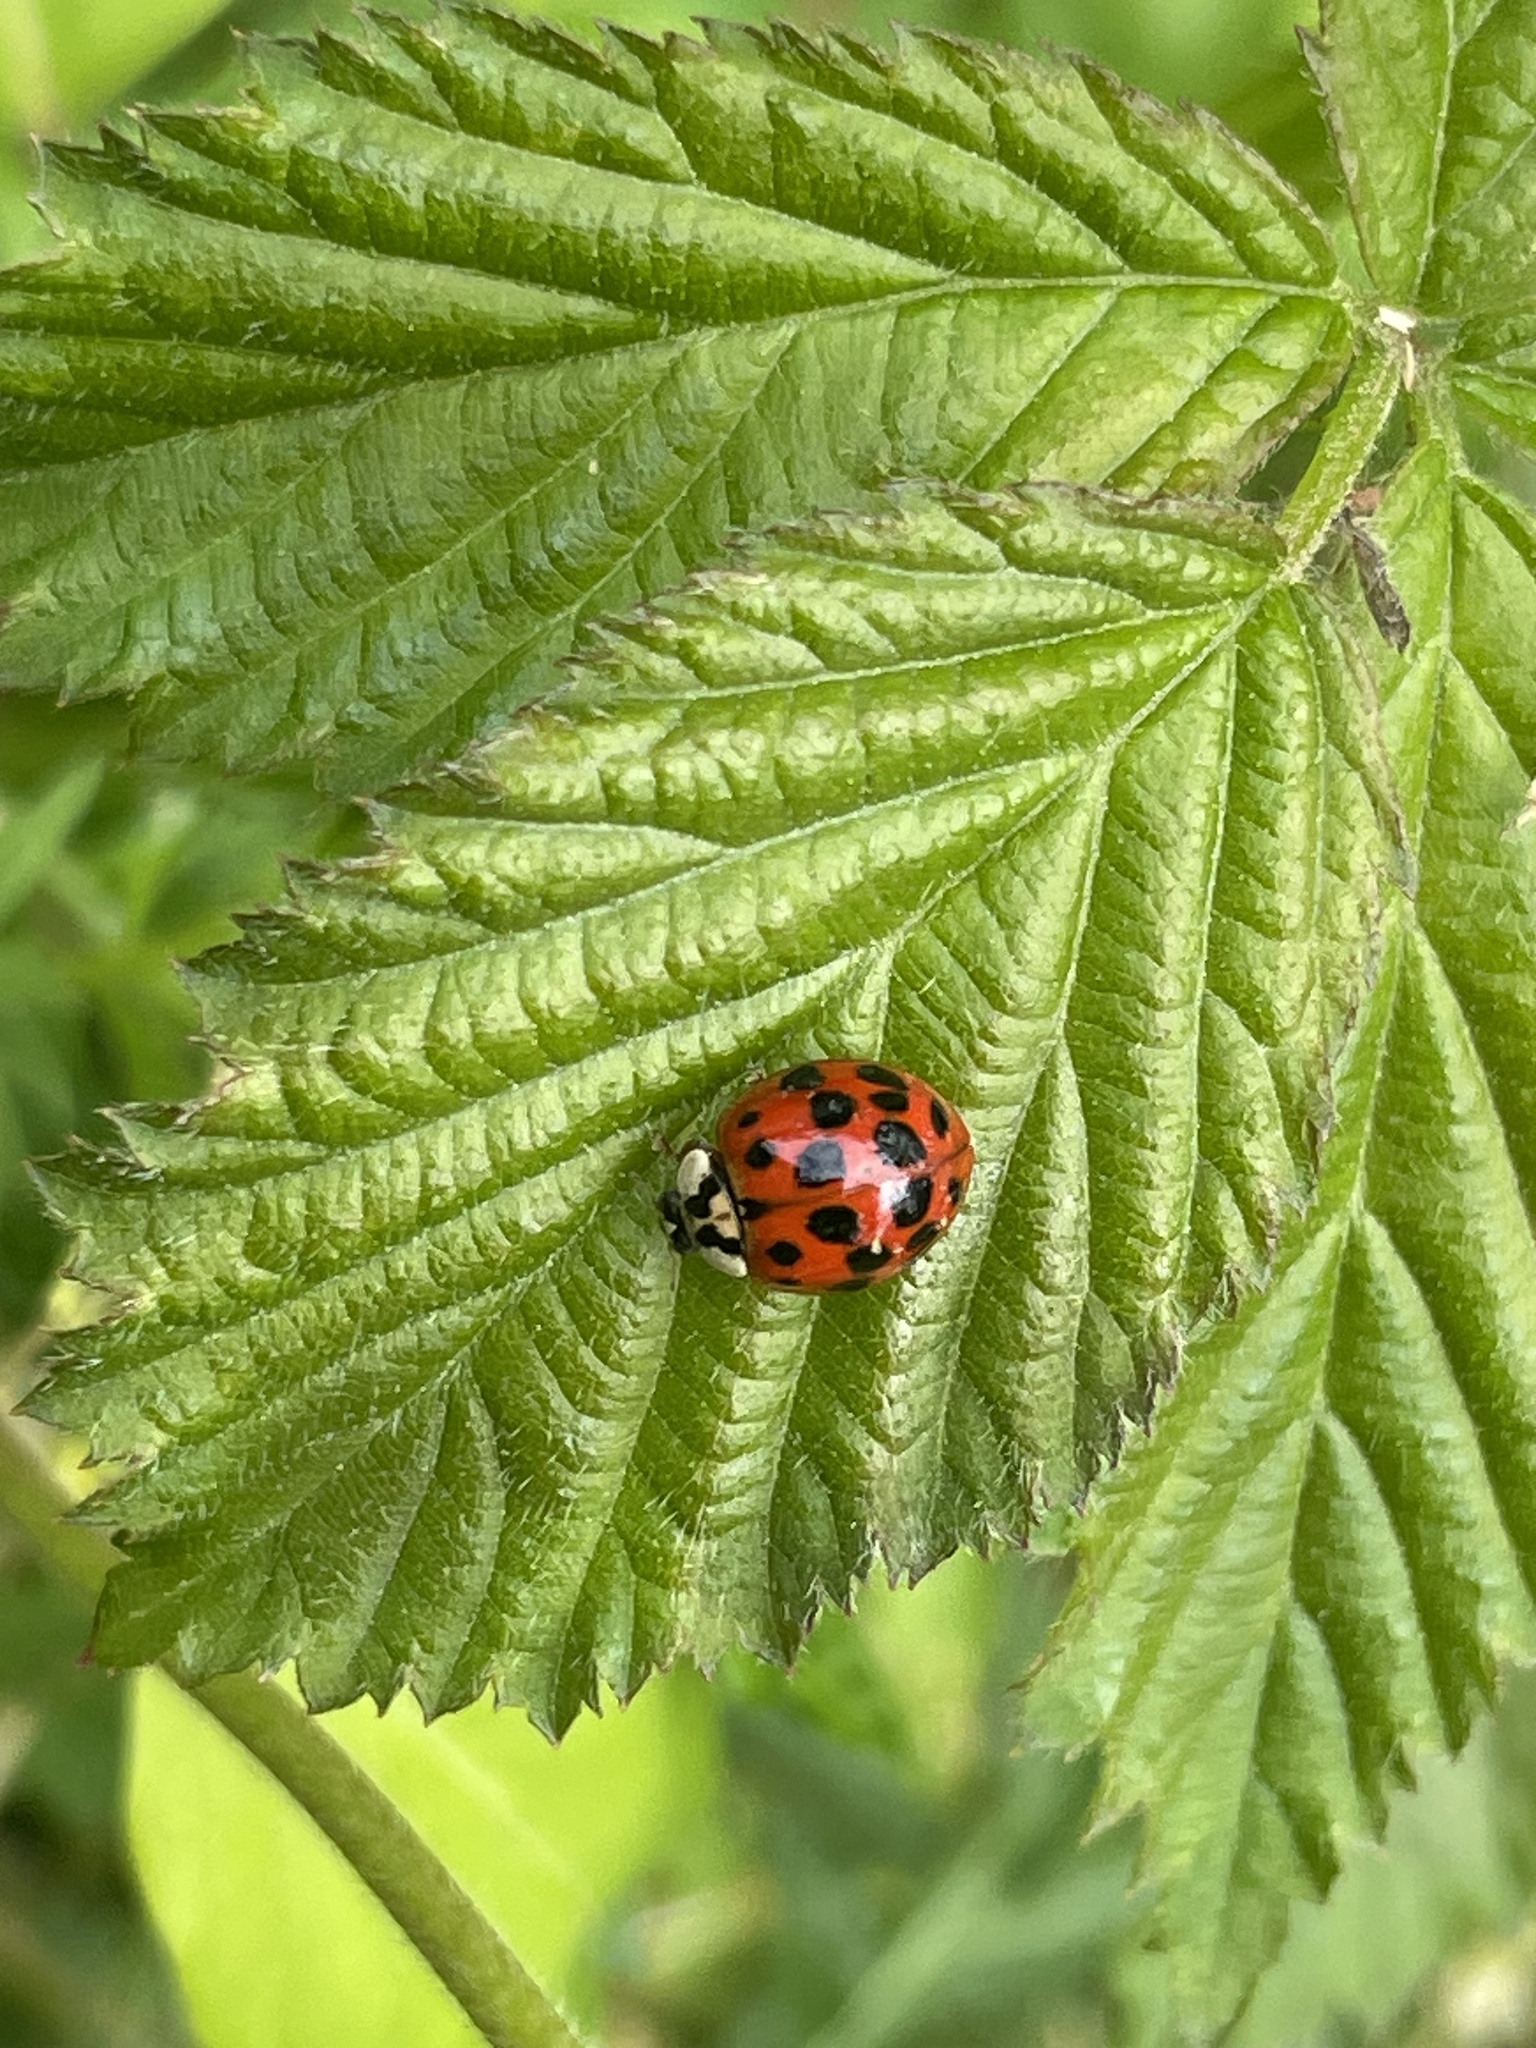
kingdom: Animalia
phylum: Arthropoda
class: Insecta
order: Coleoptera
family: Coccinellidae
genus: Harmonia
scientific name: Harmonia axyridis
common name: Harlequin ladybird
